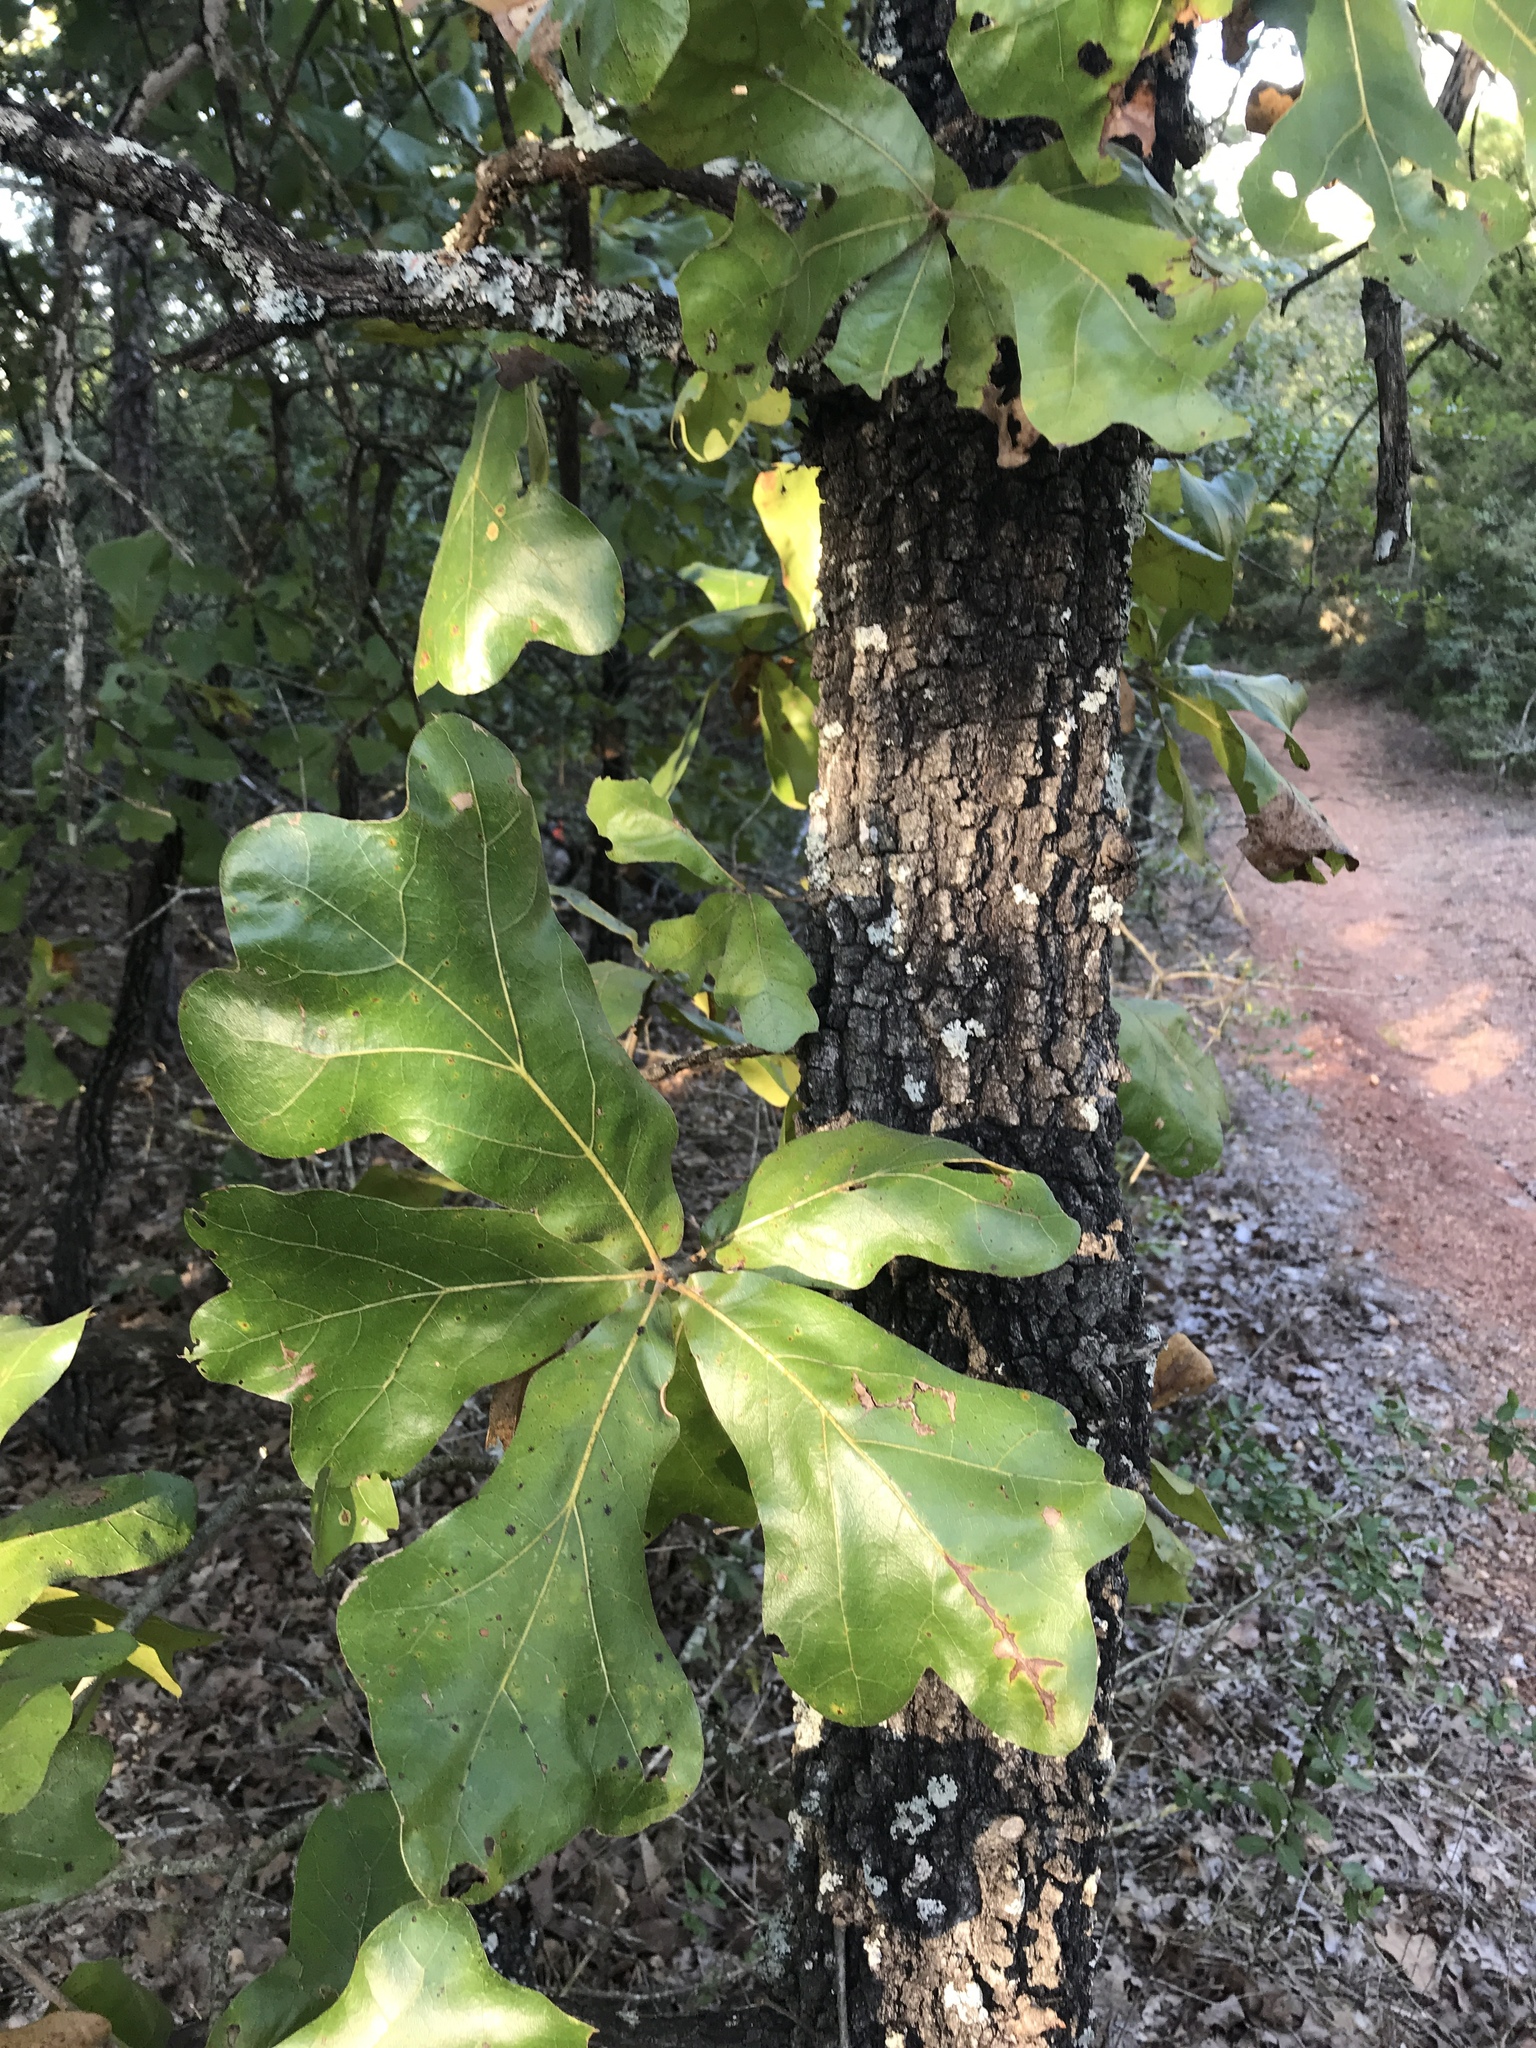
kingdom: Plantae
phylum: Tracheophyta
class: Magnoliopsida
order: Fagales
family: Fagaceae
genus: Quercus
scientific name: Quercus marilandica
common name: Blackjack oak
